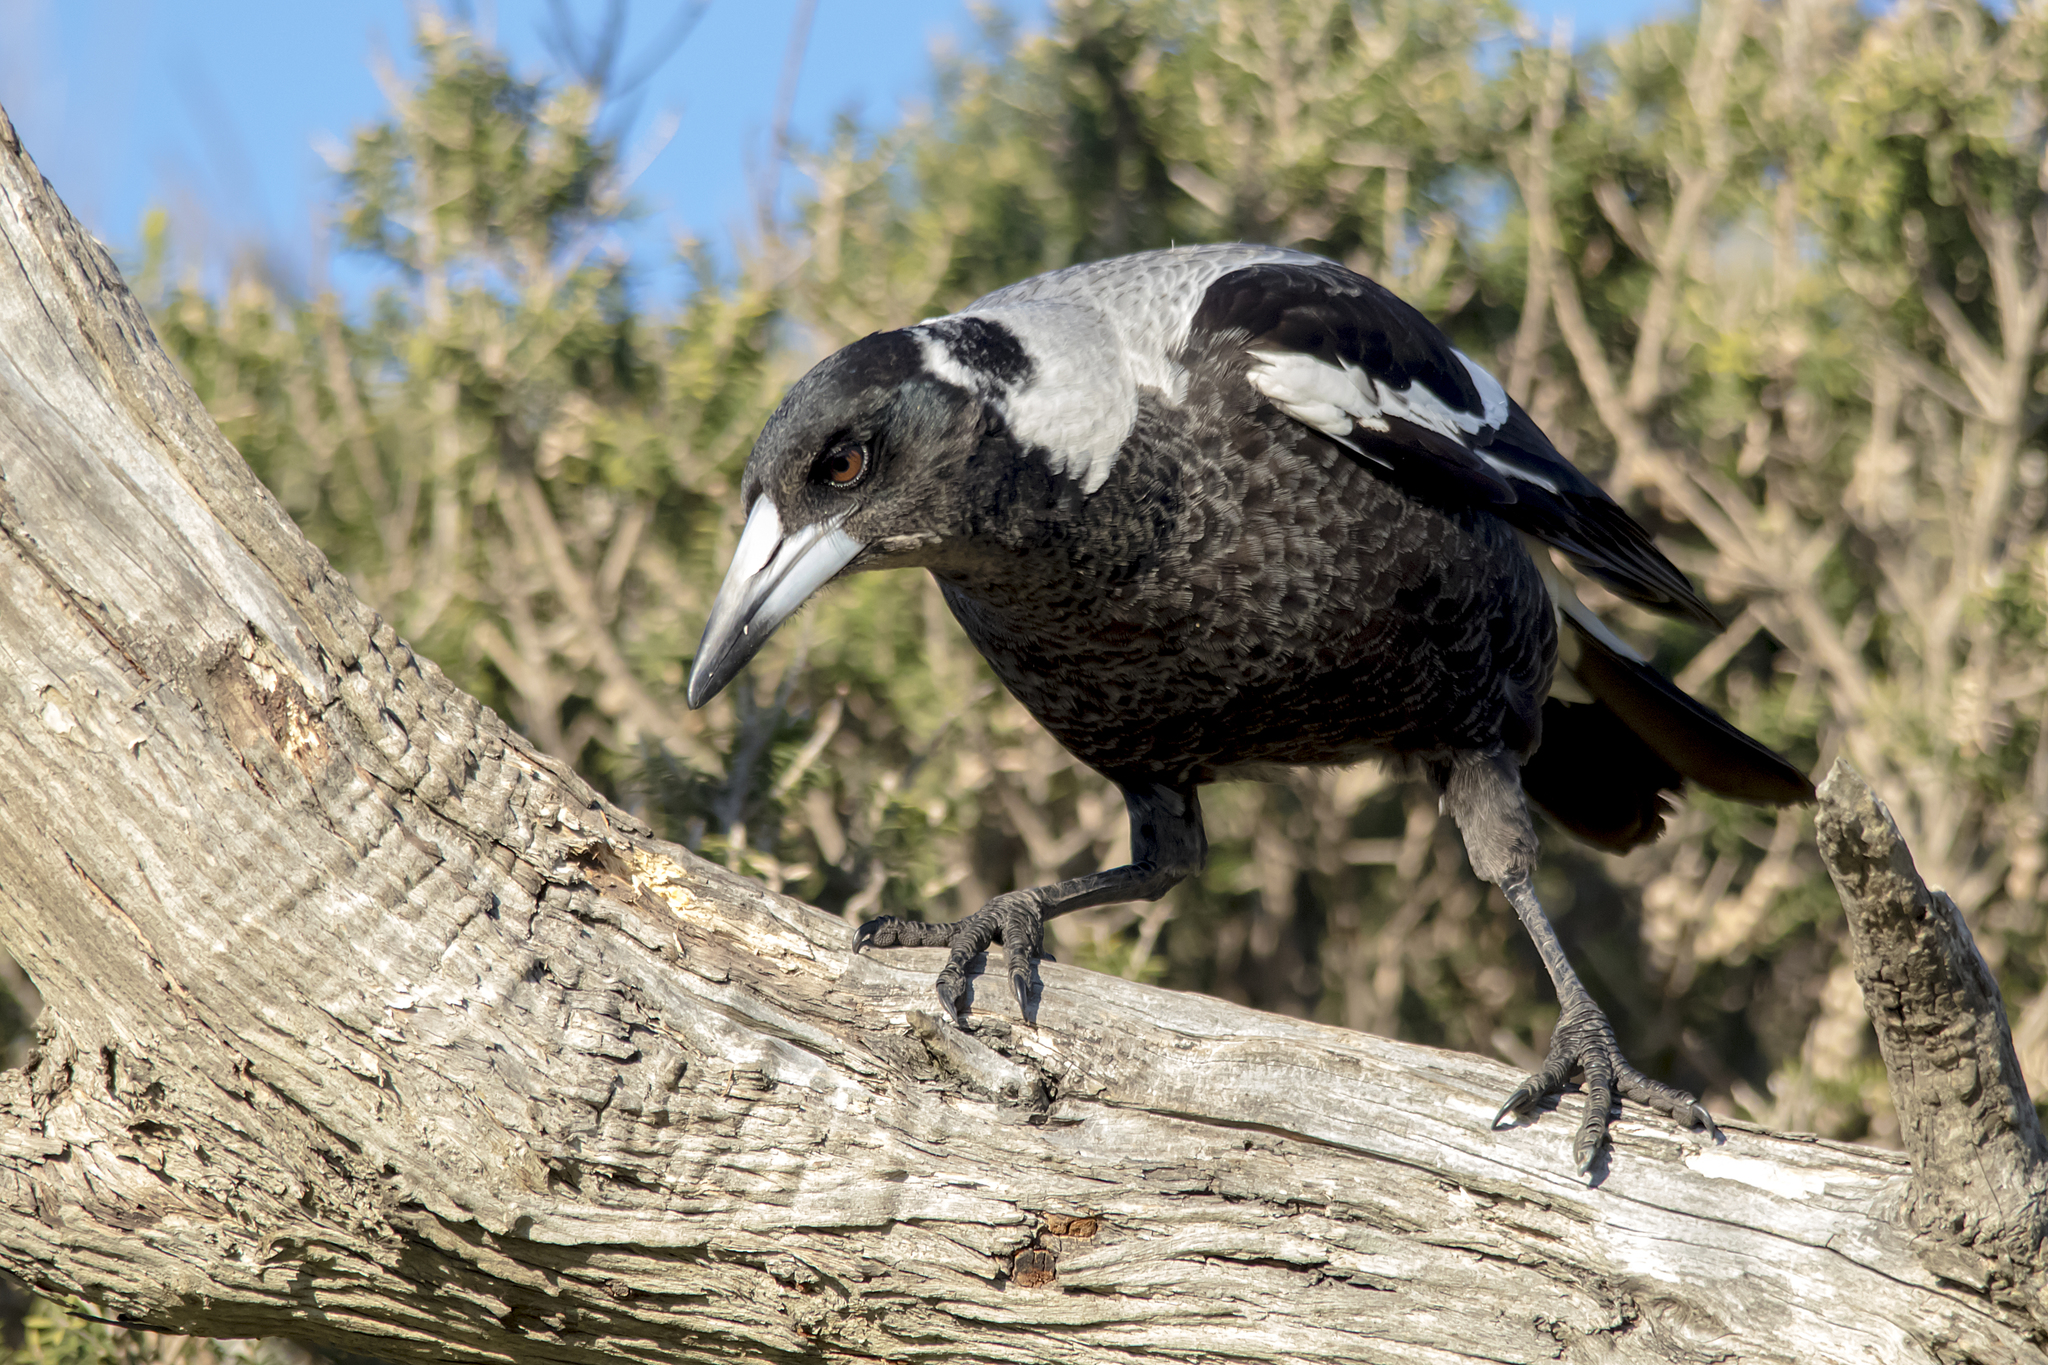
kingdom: Animalia
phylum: Chordata
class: Aves
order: Passeriformes
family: Cracticidae
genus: Gymnorhina
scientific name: Gymnorhina tibicen
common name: Australian magpie
